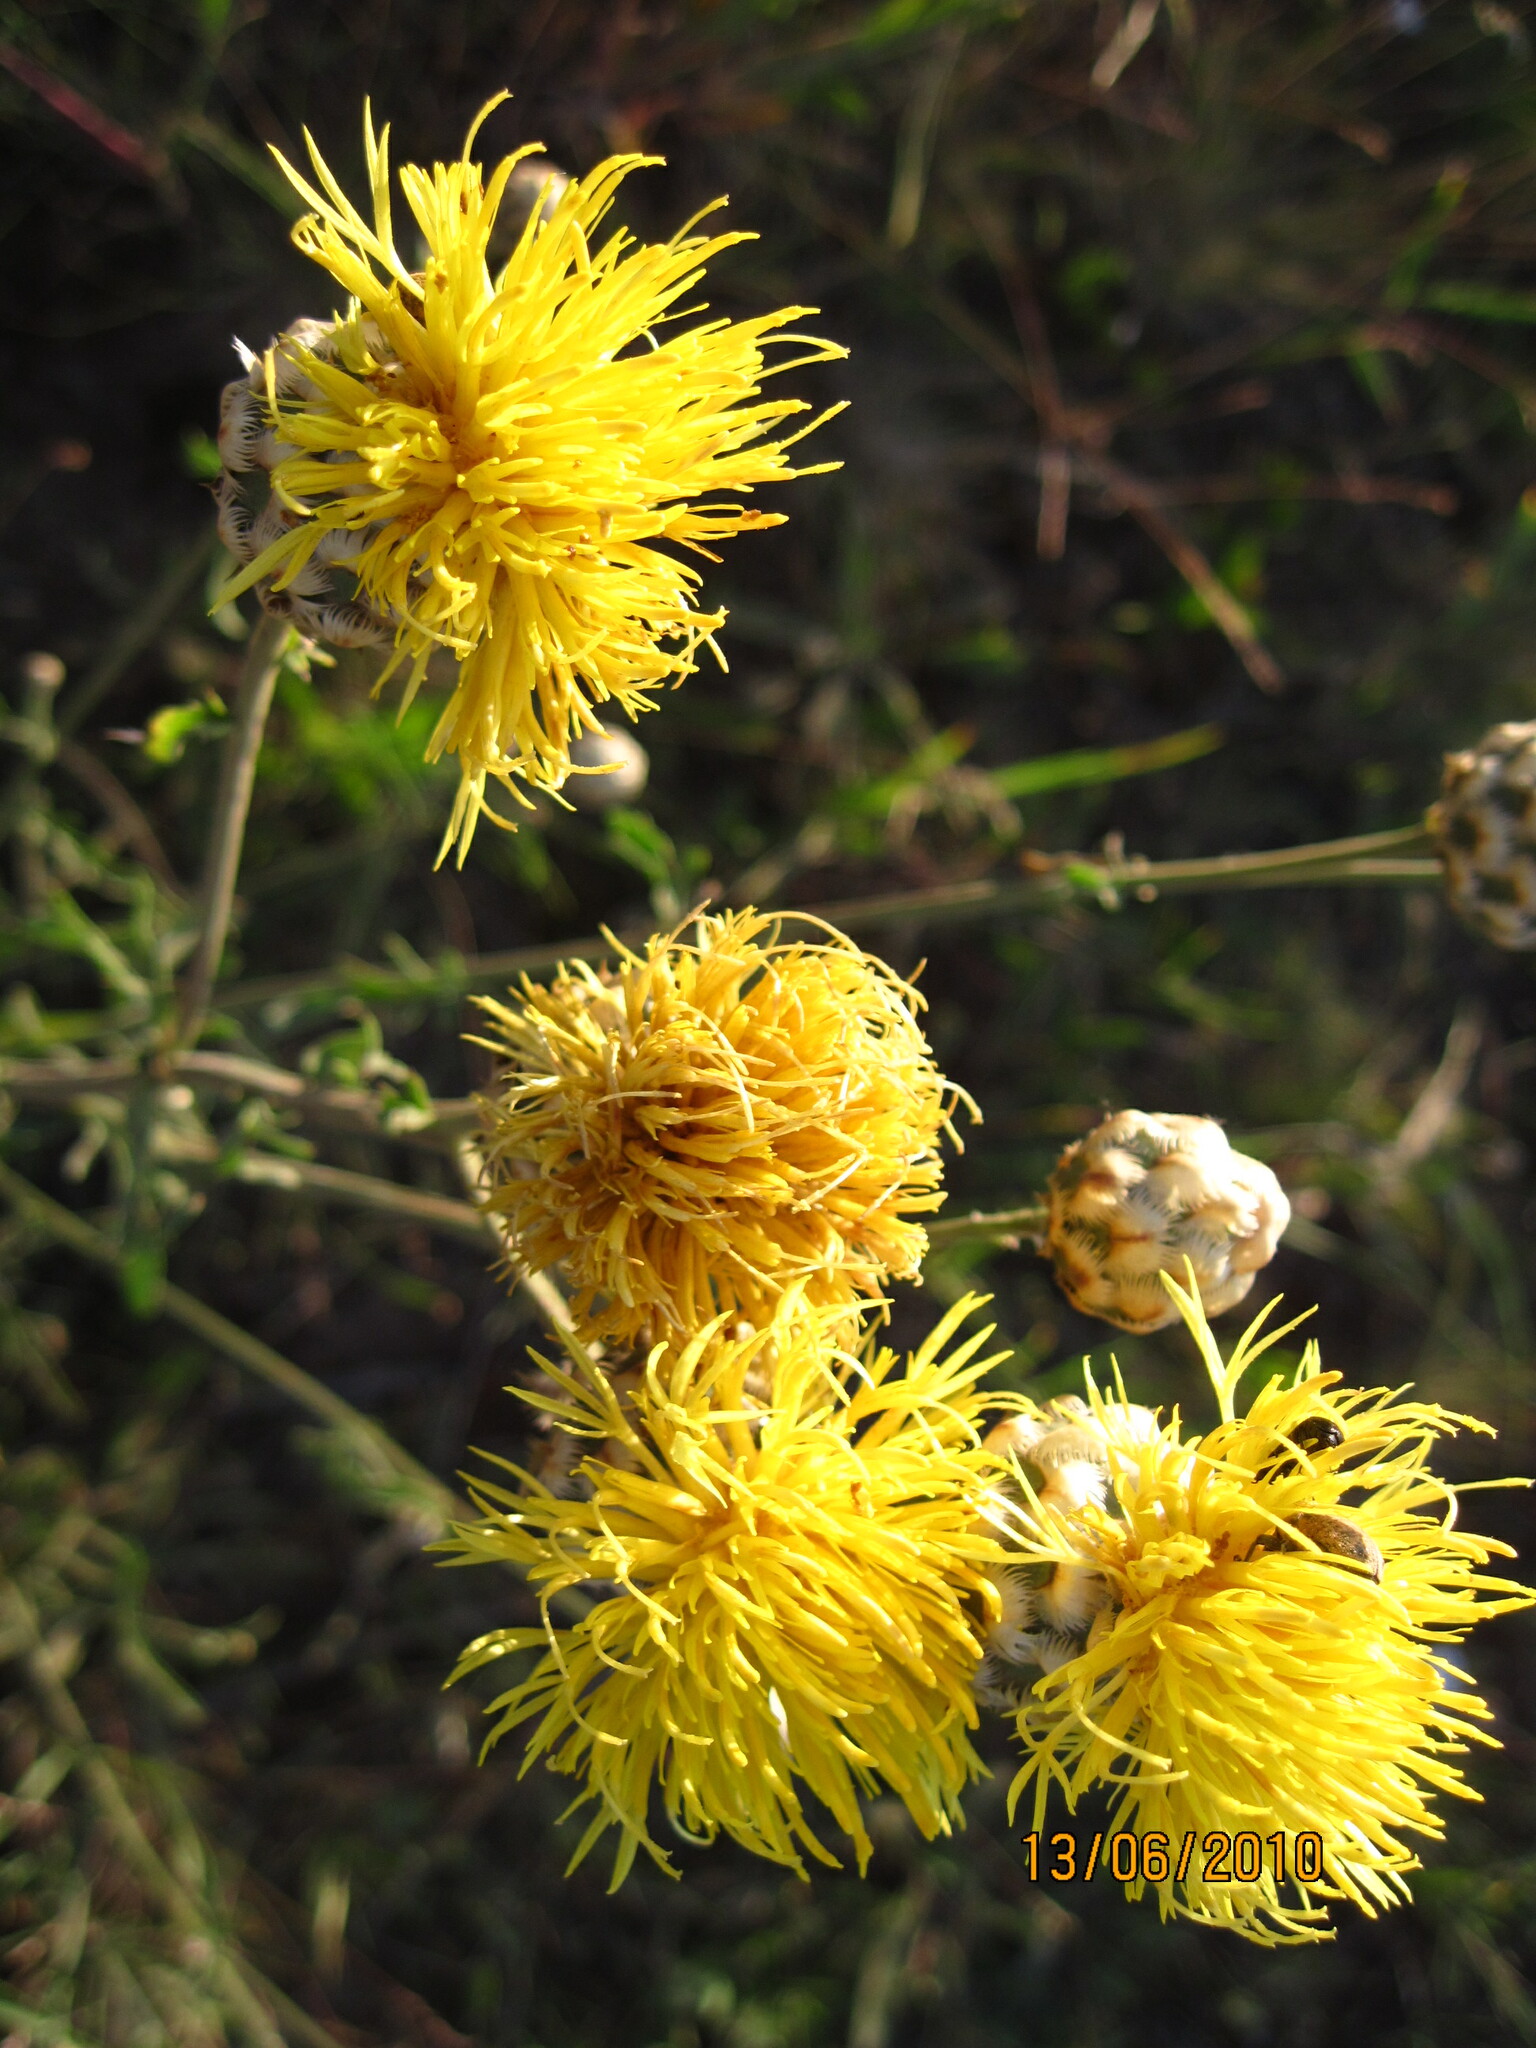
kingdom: Plantae
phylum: Tracheophyta
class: Magnoliopsida
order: Asterales
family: Asteraceae
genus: Centaurea
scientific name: Centaurea orientalis
